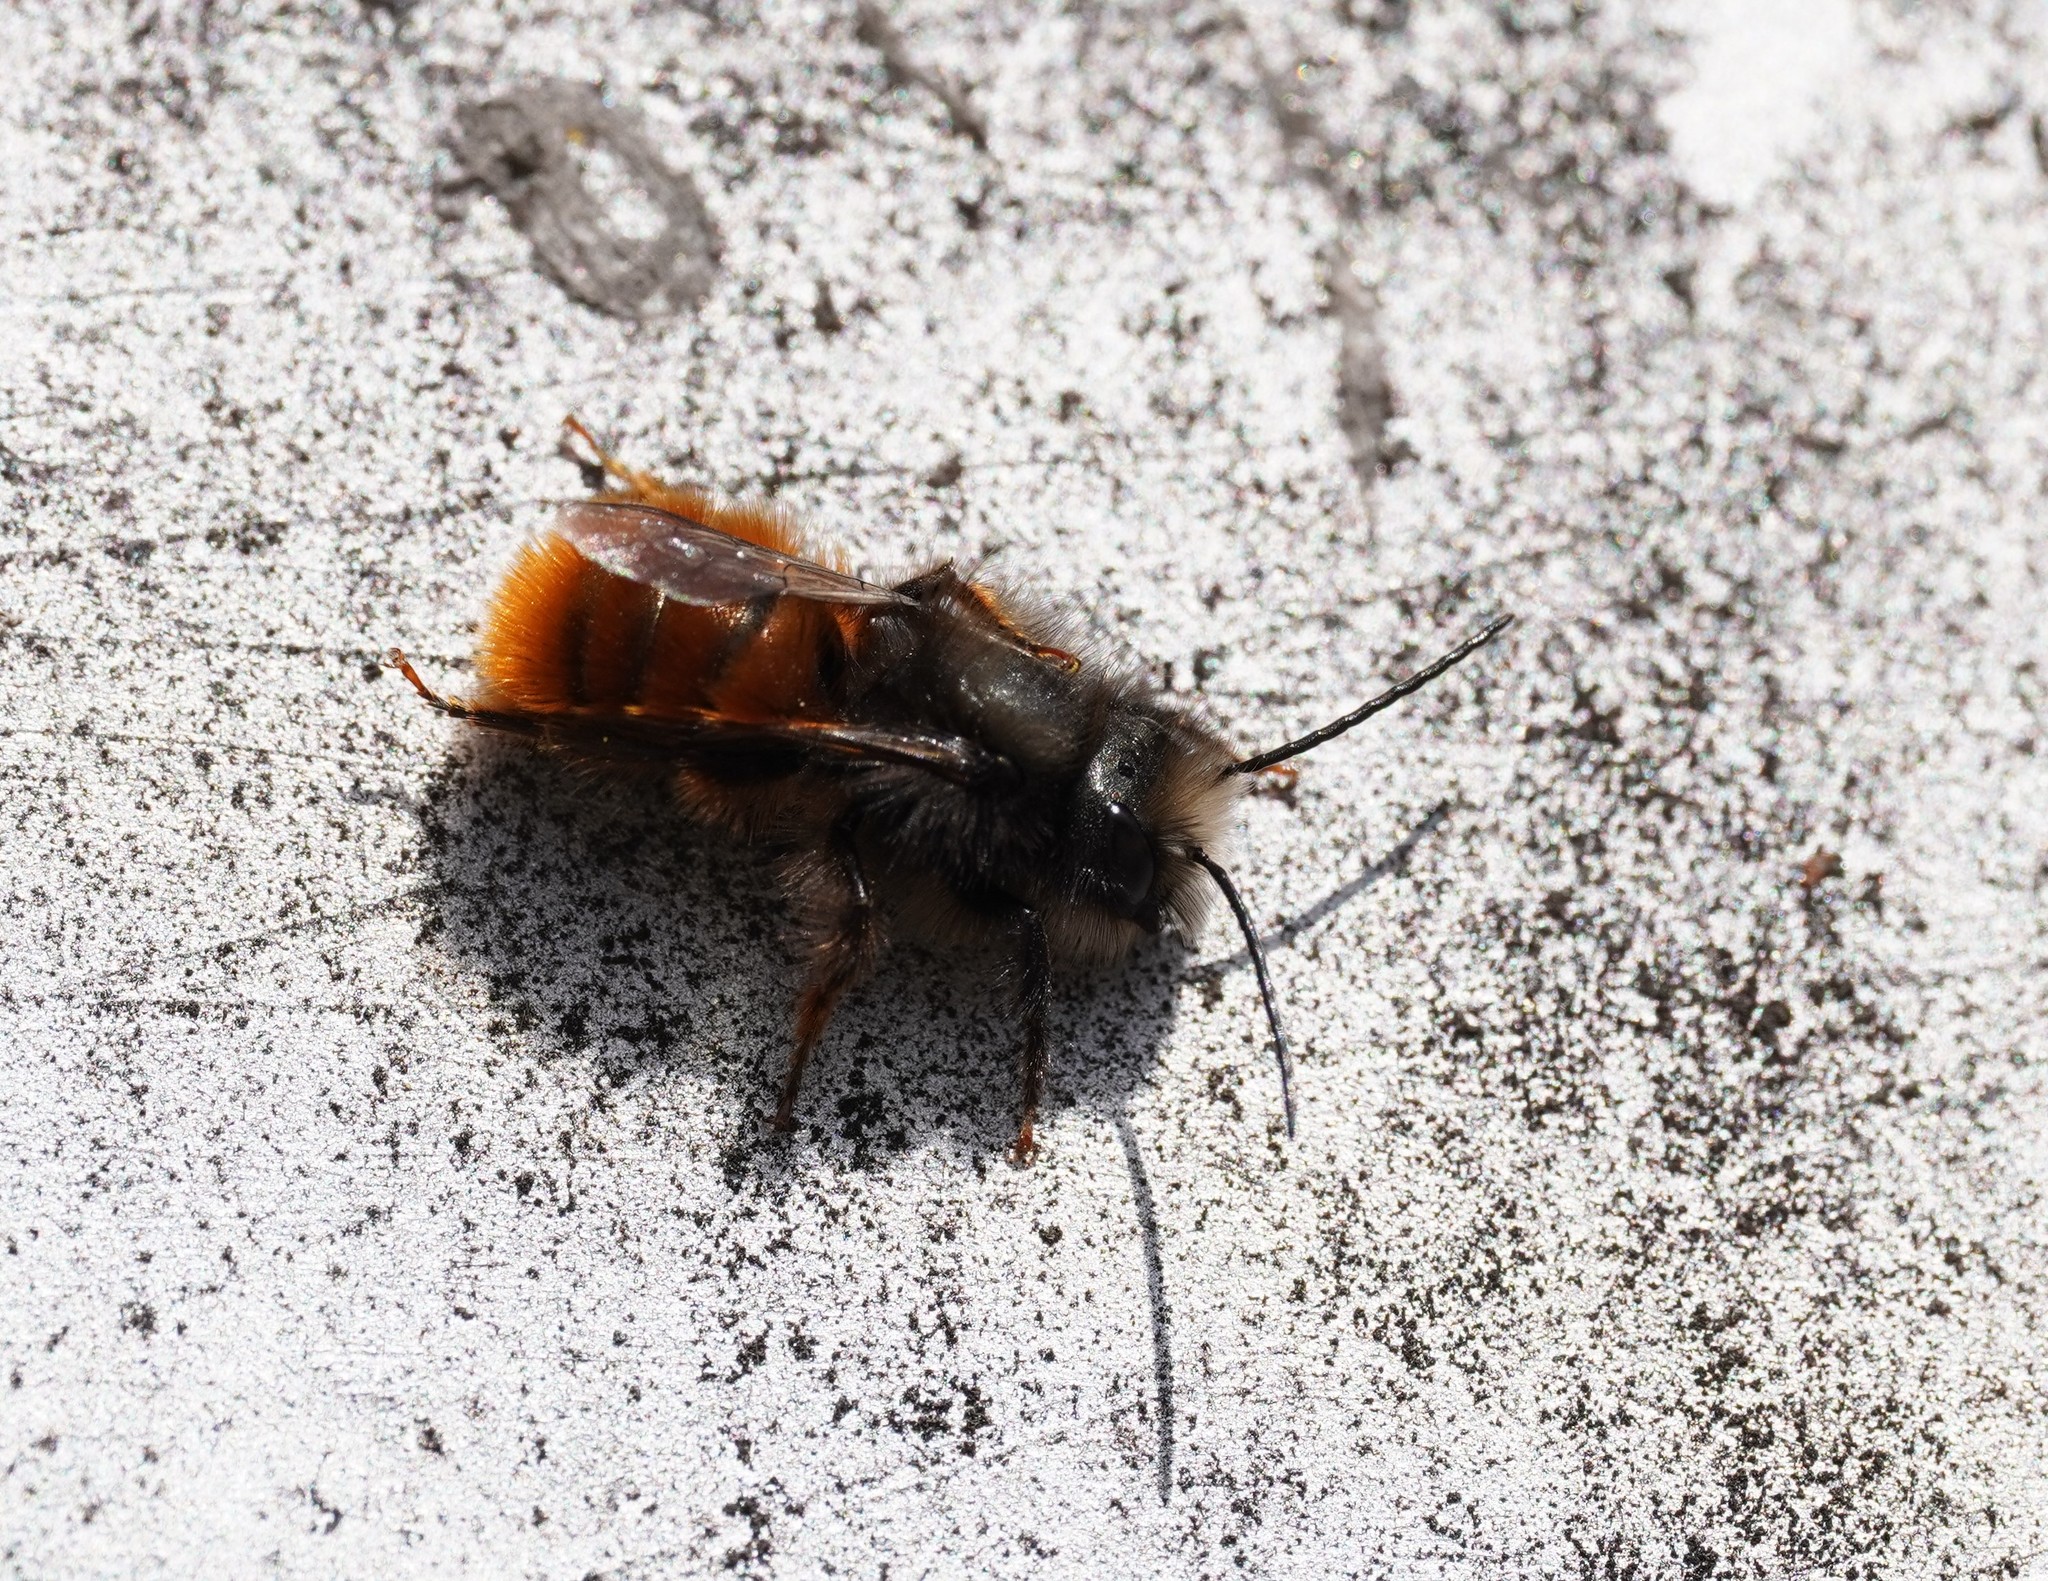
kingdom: Animalia
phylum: Arthropoda
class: Insecta
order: Hymenoptera
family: Megachilidae
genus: Osmia
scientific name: Osmia cornuta
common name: Mason bee
